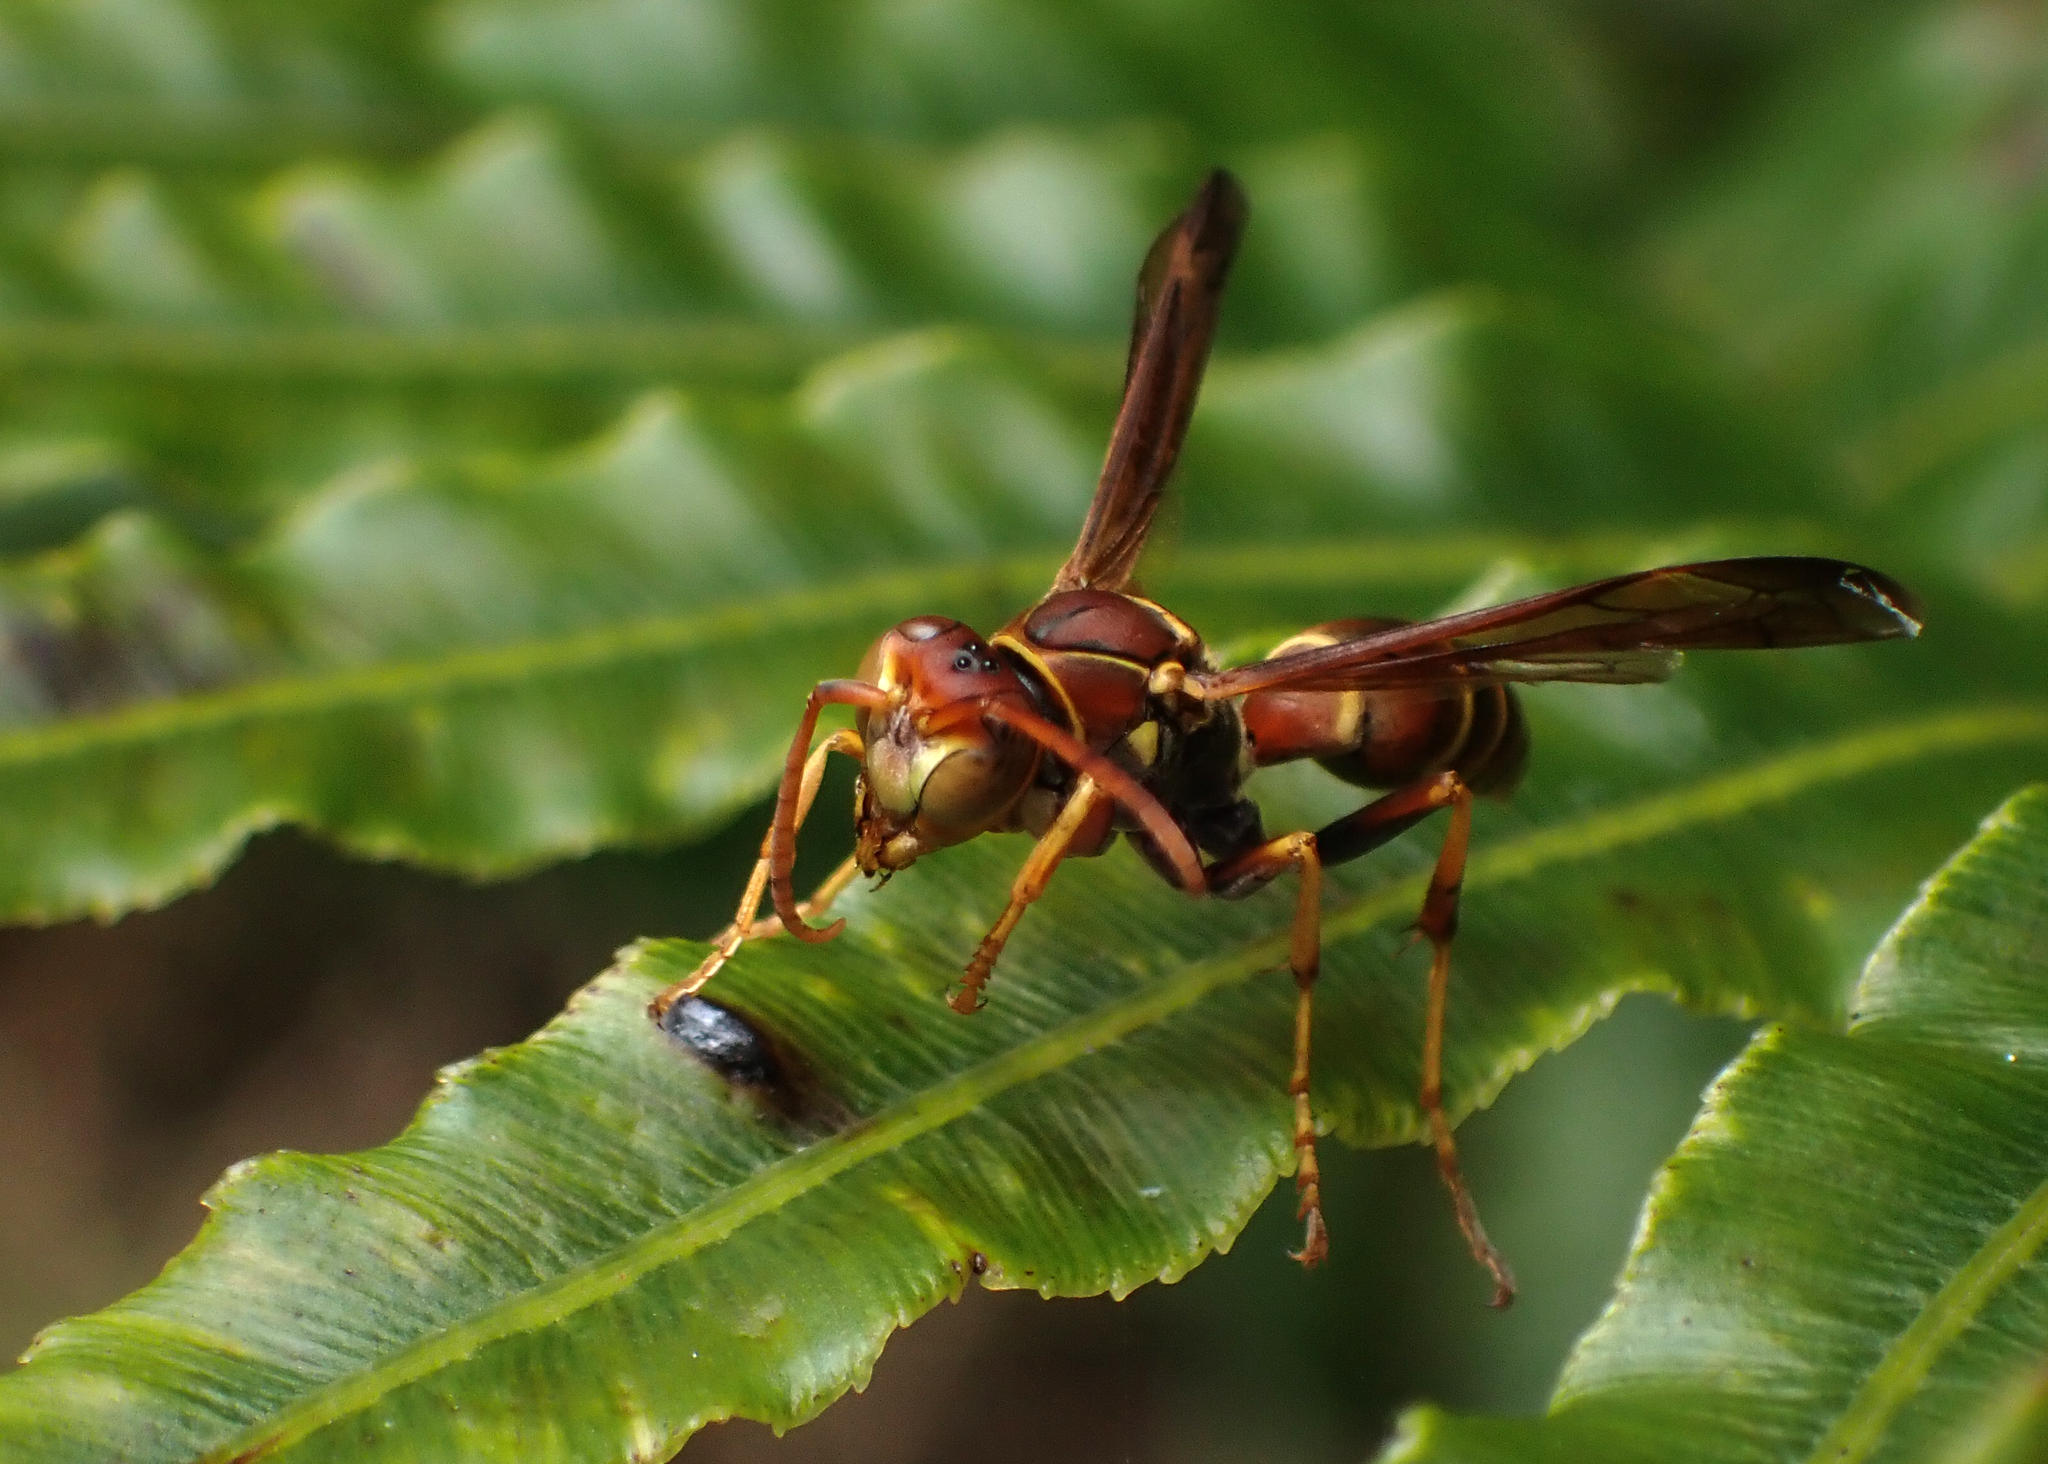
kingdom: Animalia
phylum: Arthropoda
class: Insecta
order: Hymenoptera
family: Eumenidae
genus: Polistes
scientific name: Polistes dorsalis
